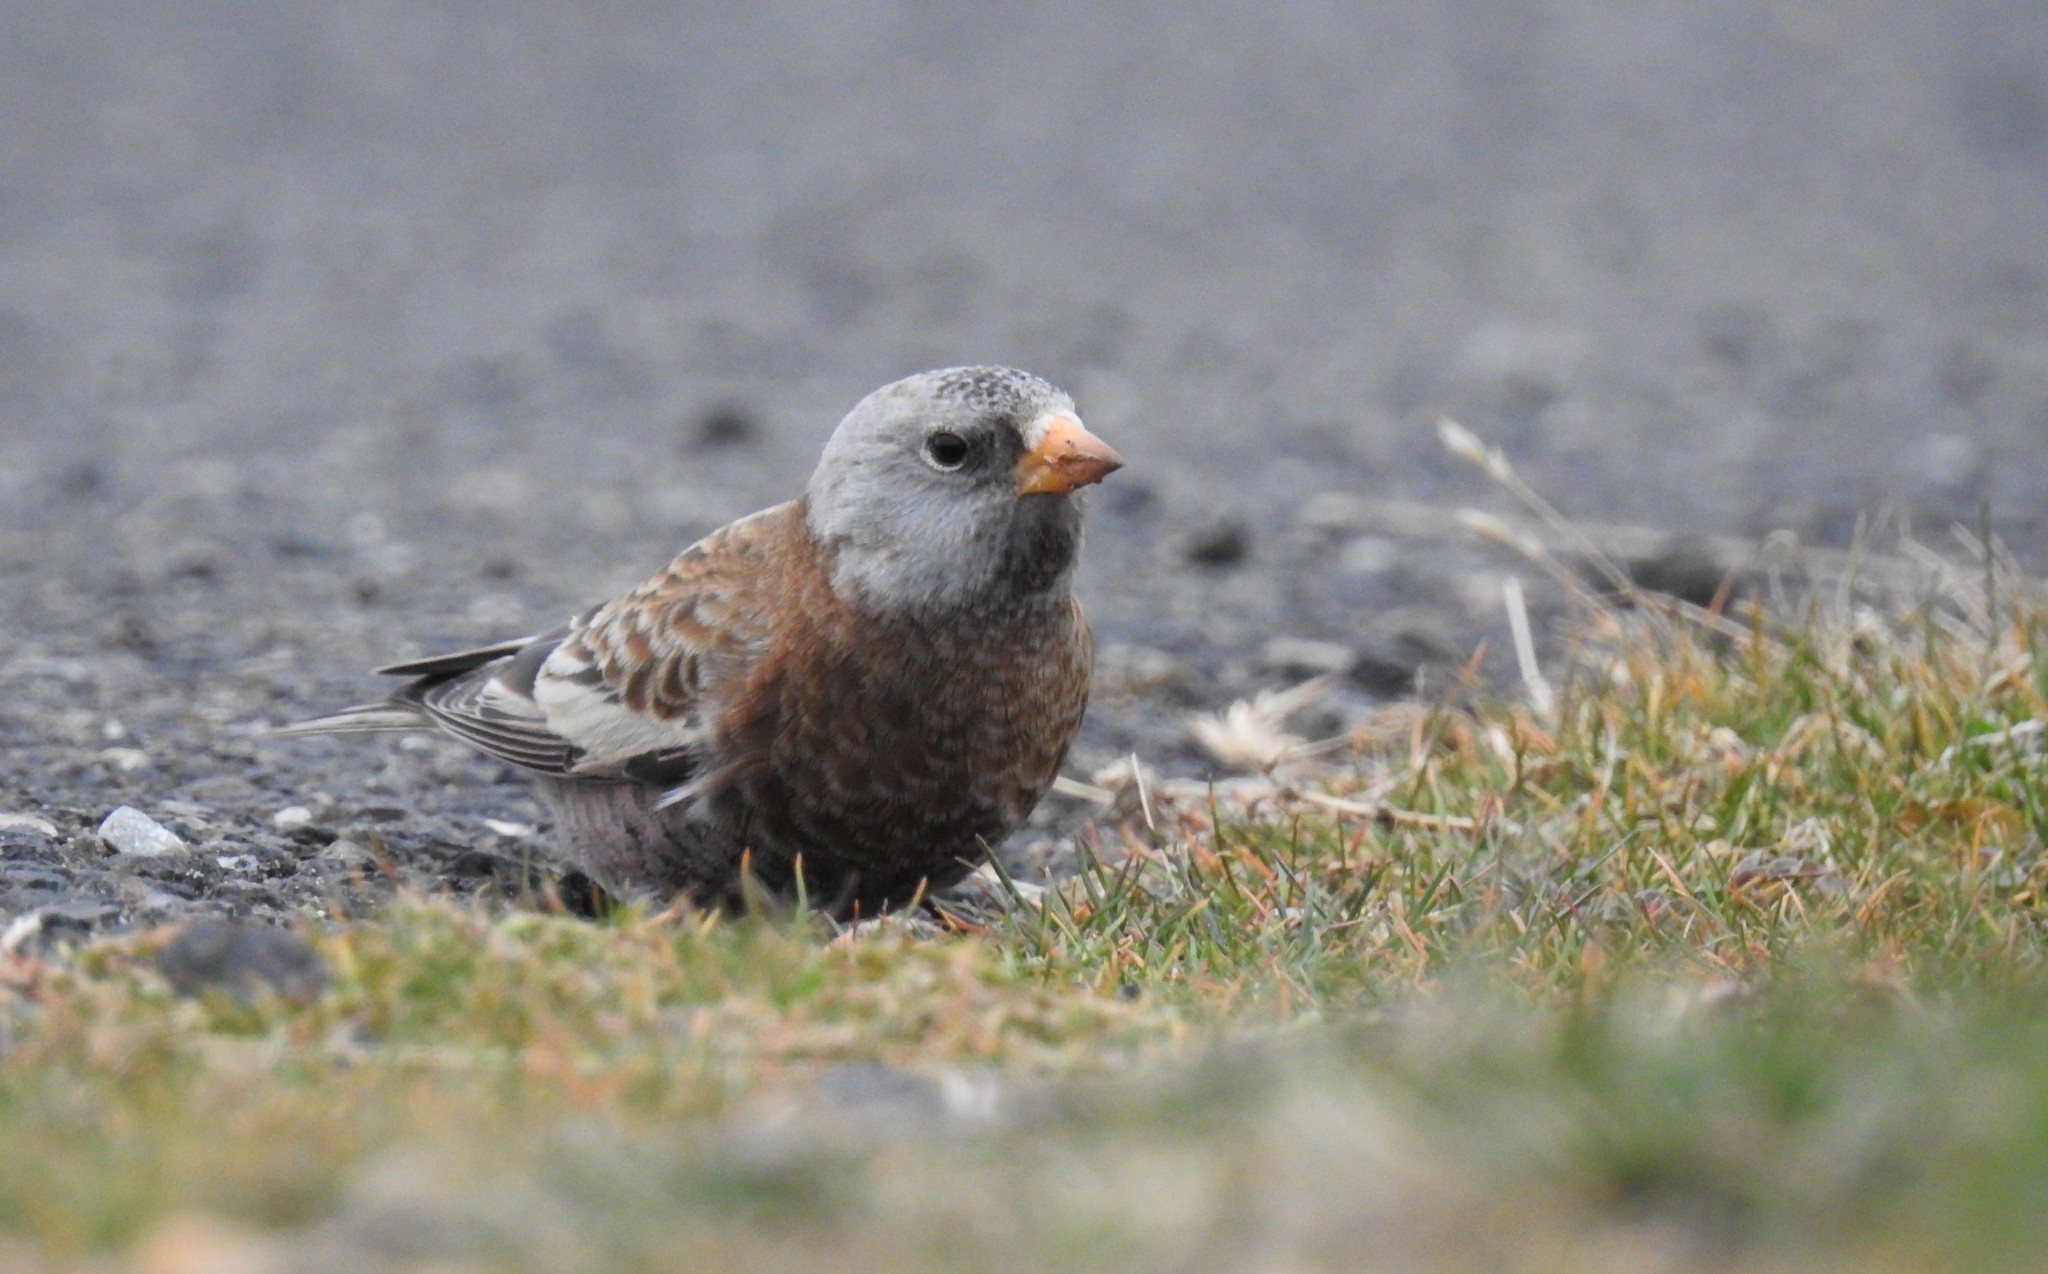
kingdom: Animalia
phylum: Chordata
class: Aves
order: Passeriformes
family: Fringillidae
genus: Leucosticte
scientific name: Leucosticte tephrocotis
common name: Gray-crowned rosy-finch
